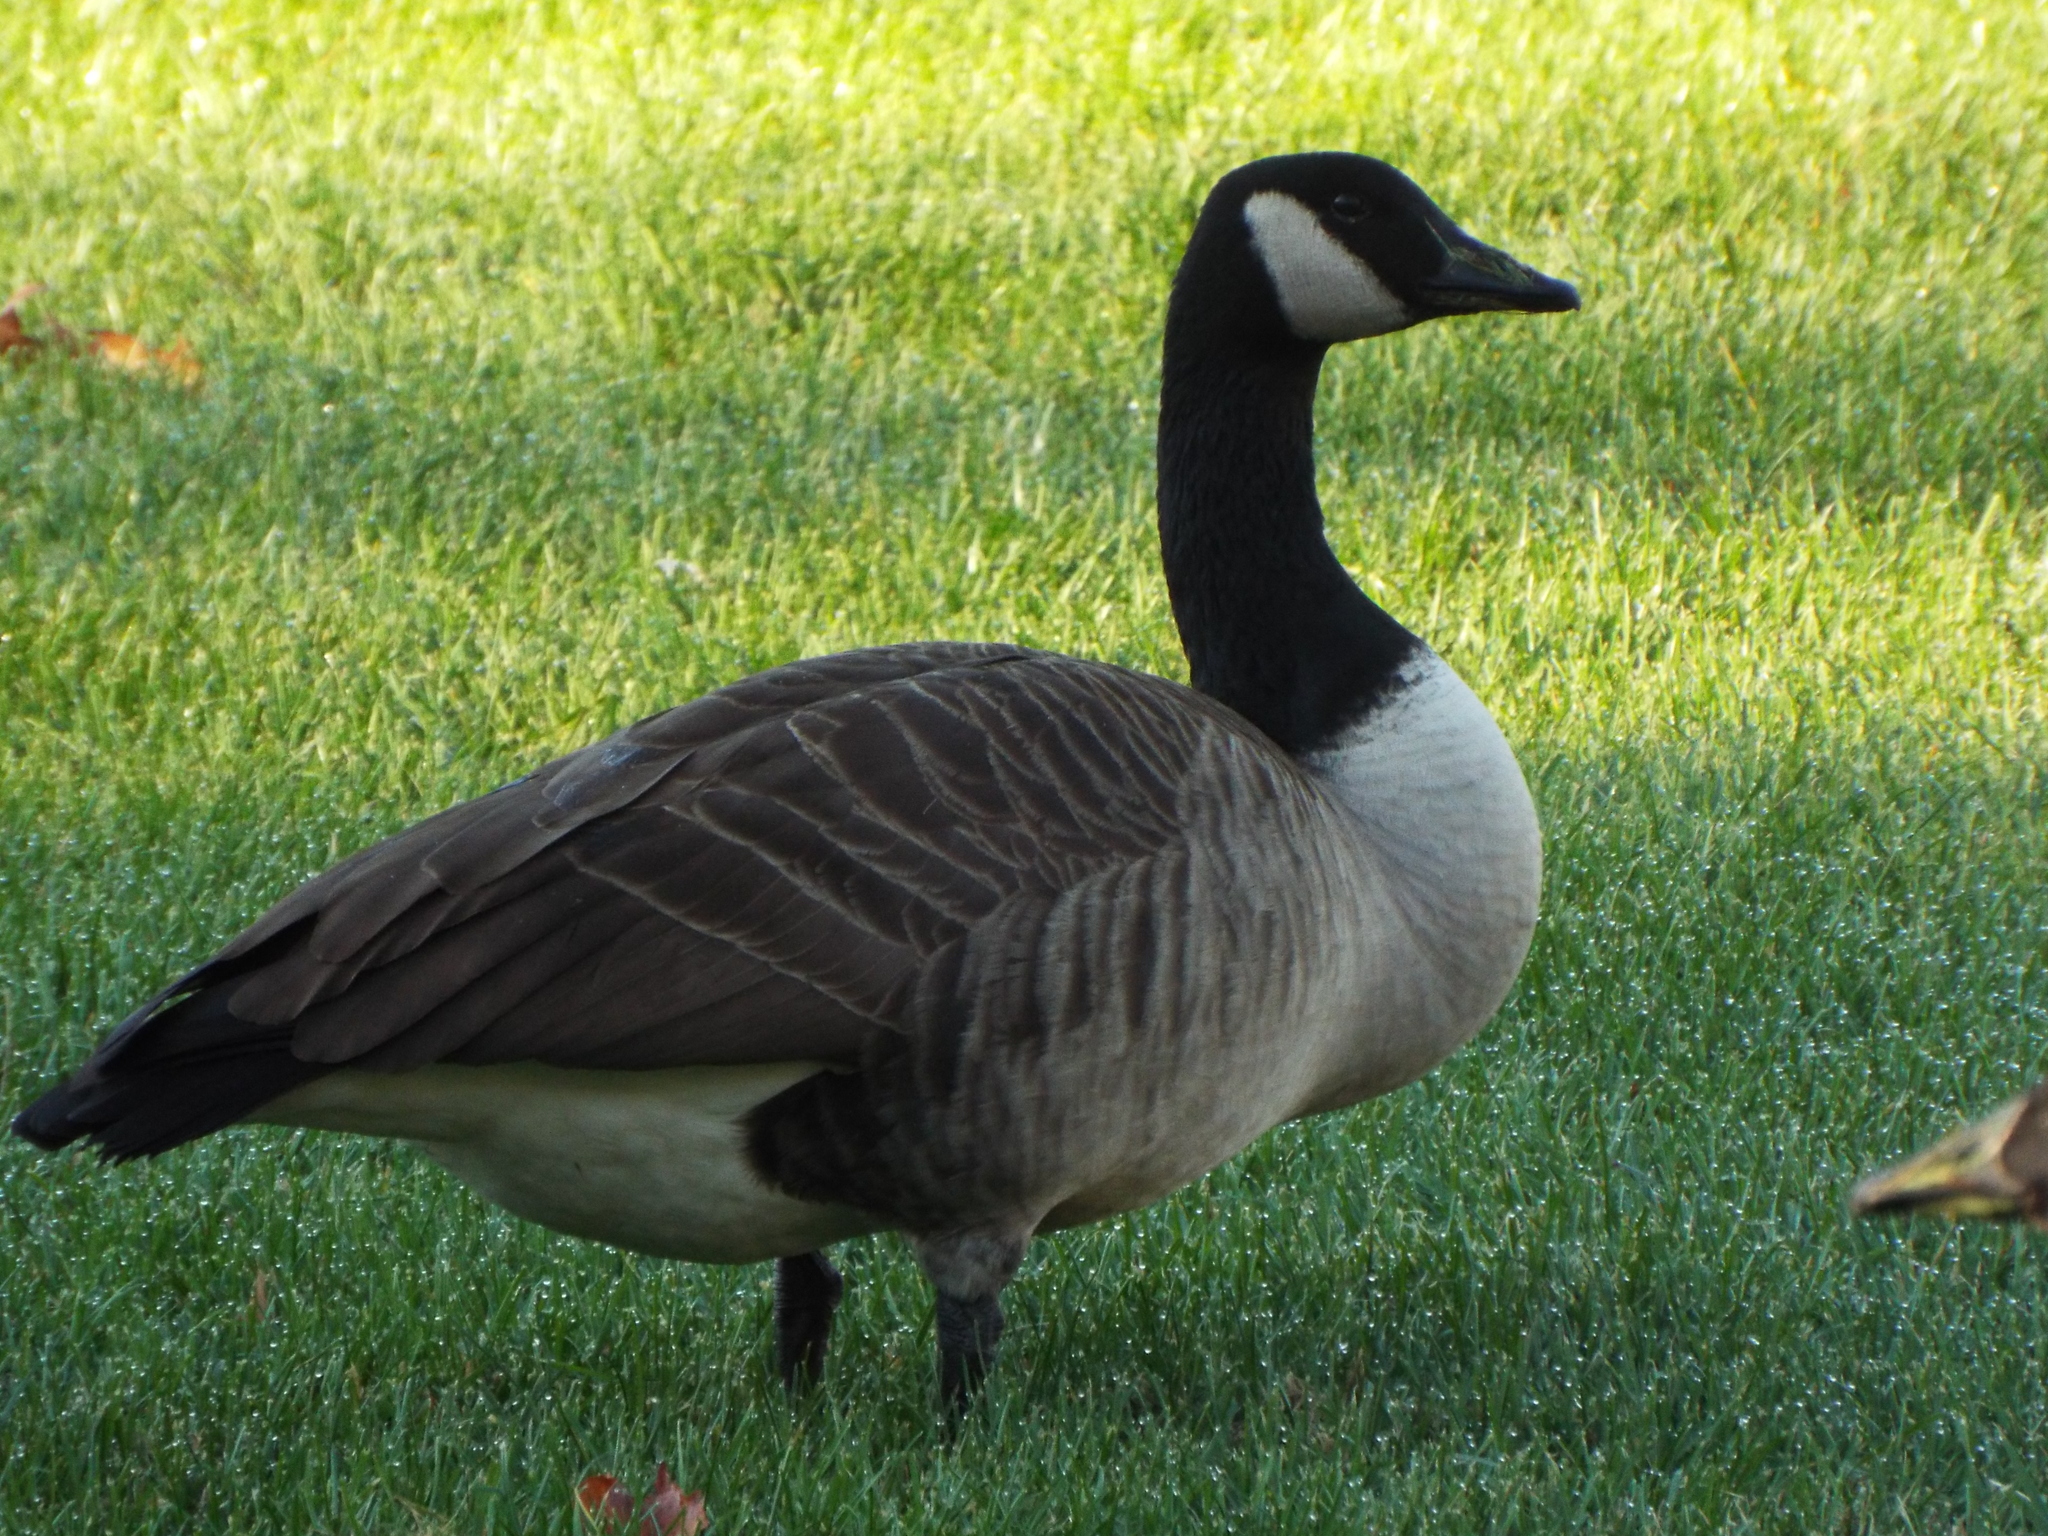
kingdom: Animalia
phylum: Chordata
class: Aves
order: Anseriformes
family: Anatidae
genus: Branta
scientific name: Branta canadensis
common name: Canada goose
